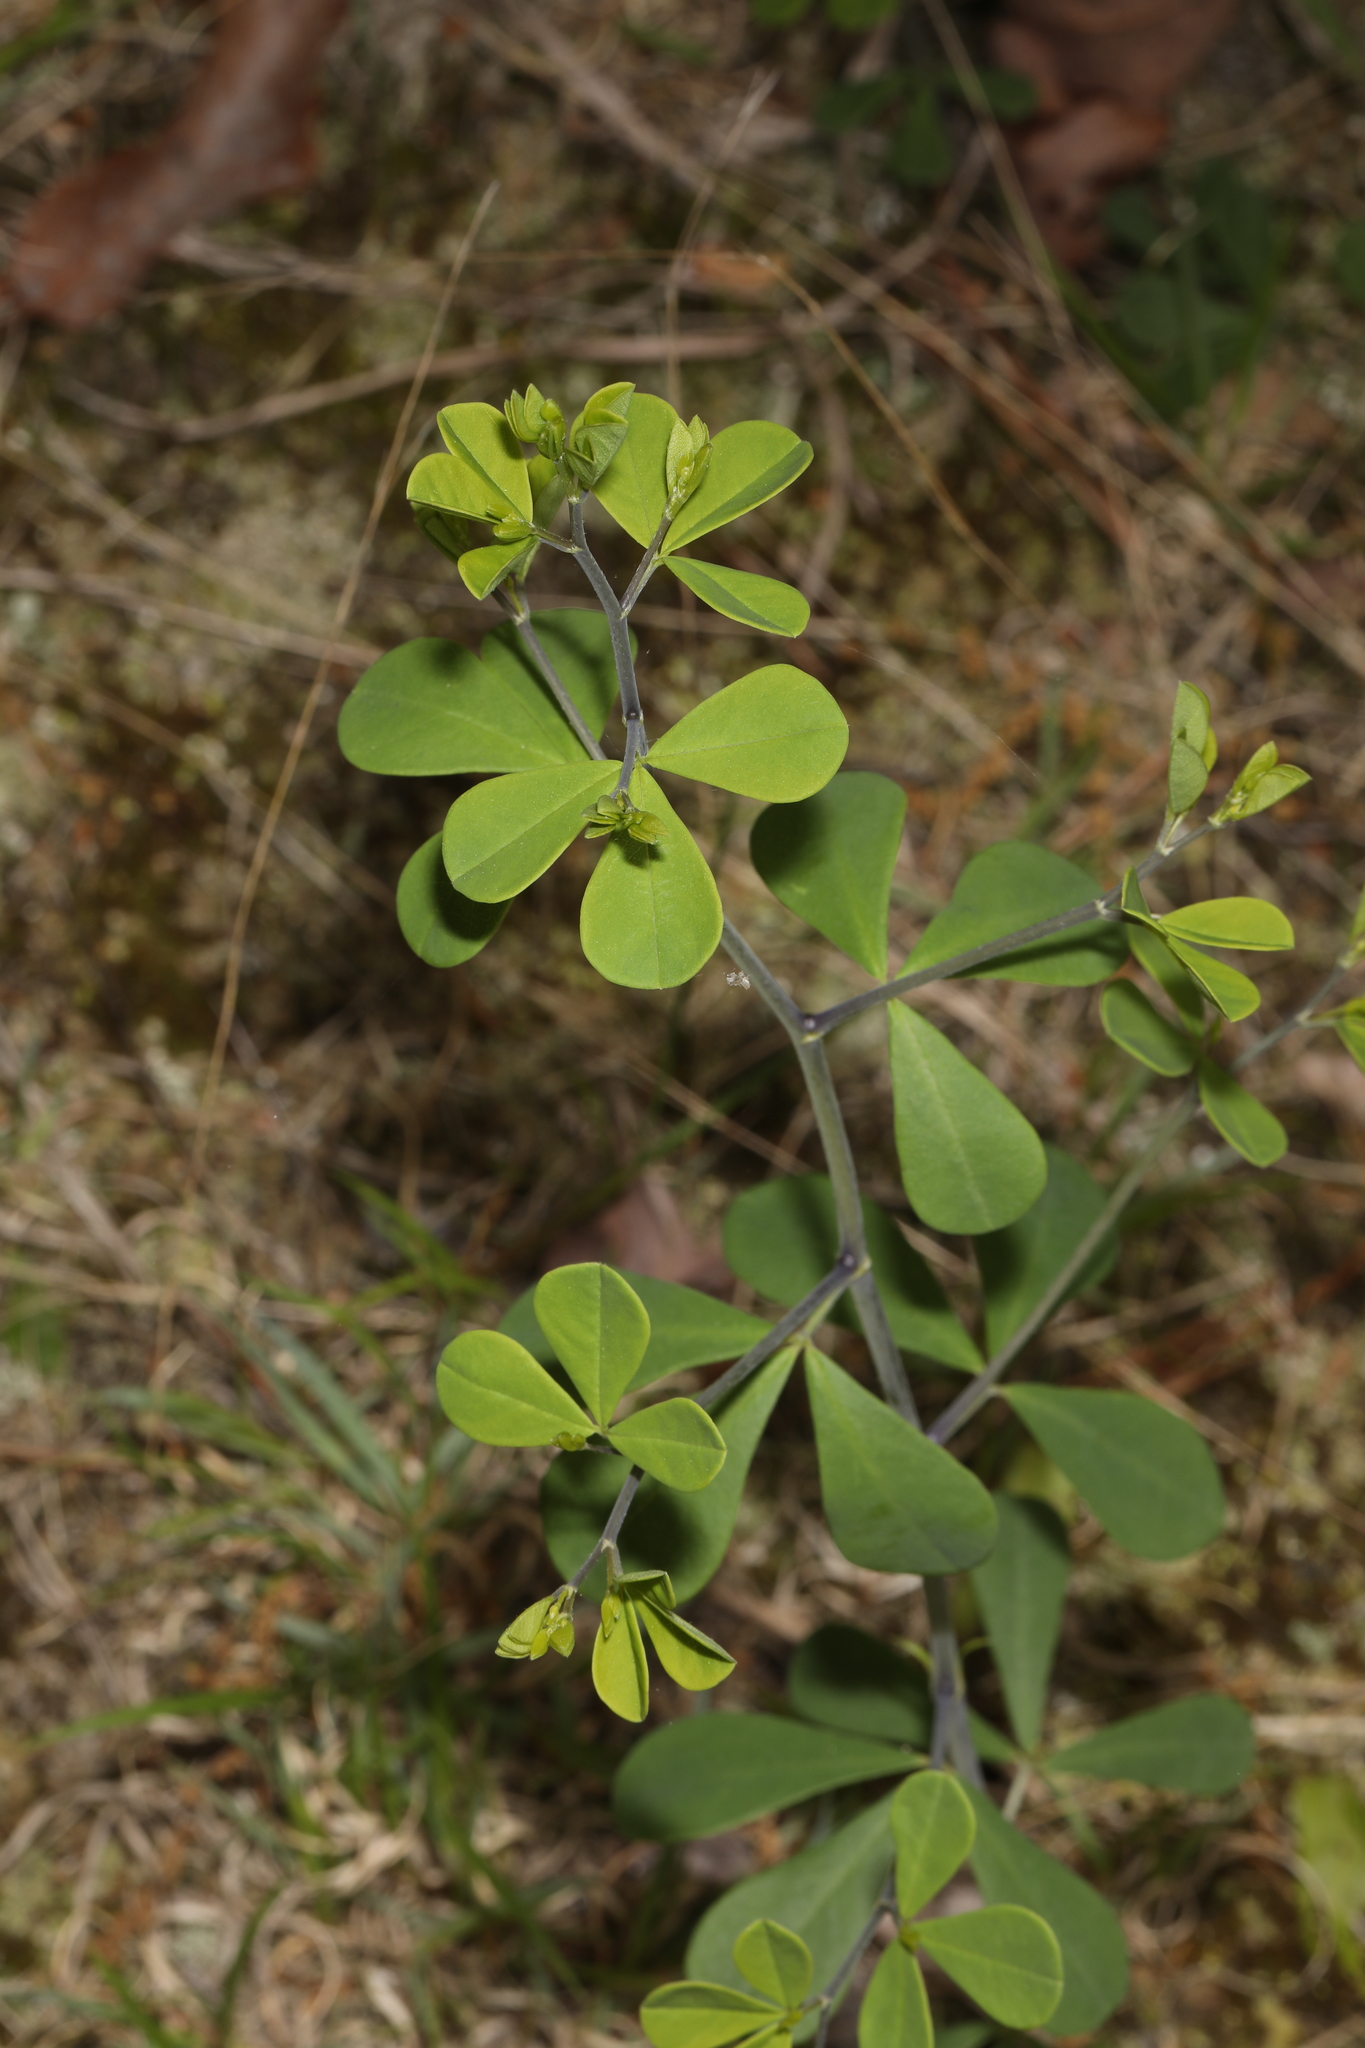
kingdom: Plantae
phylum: Tracheophyta
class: Magnoliopsida
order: Fabales
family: Fabaceae
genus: Baptisia
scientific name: Baptisia tinctoria
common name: Wild indigo
